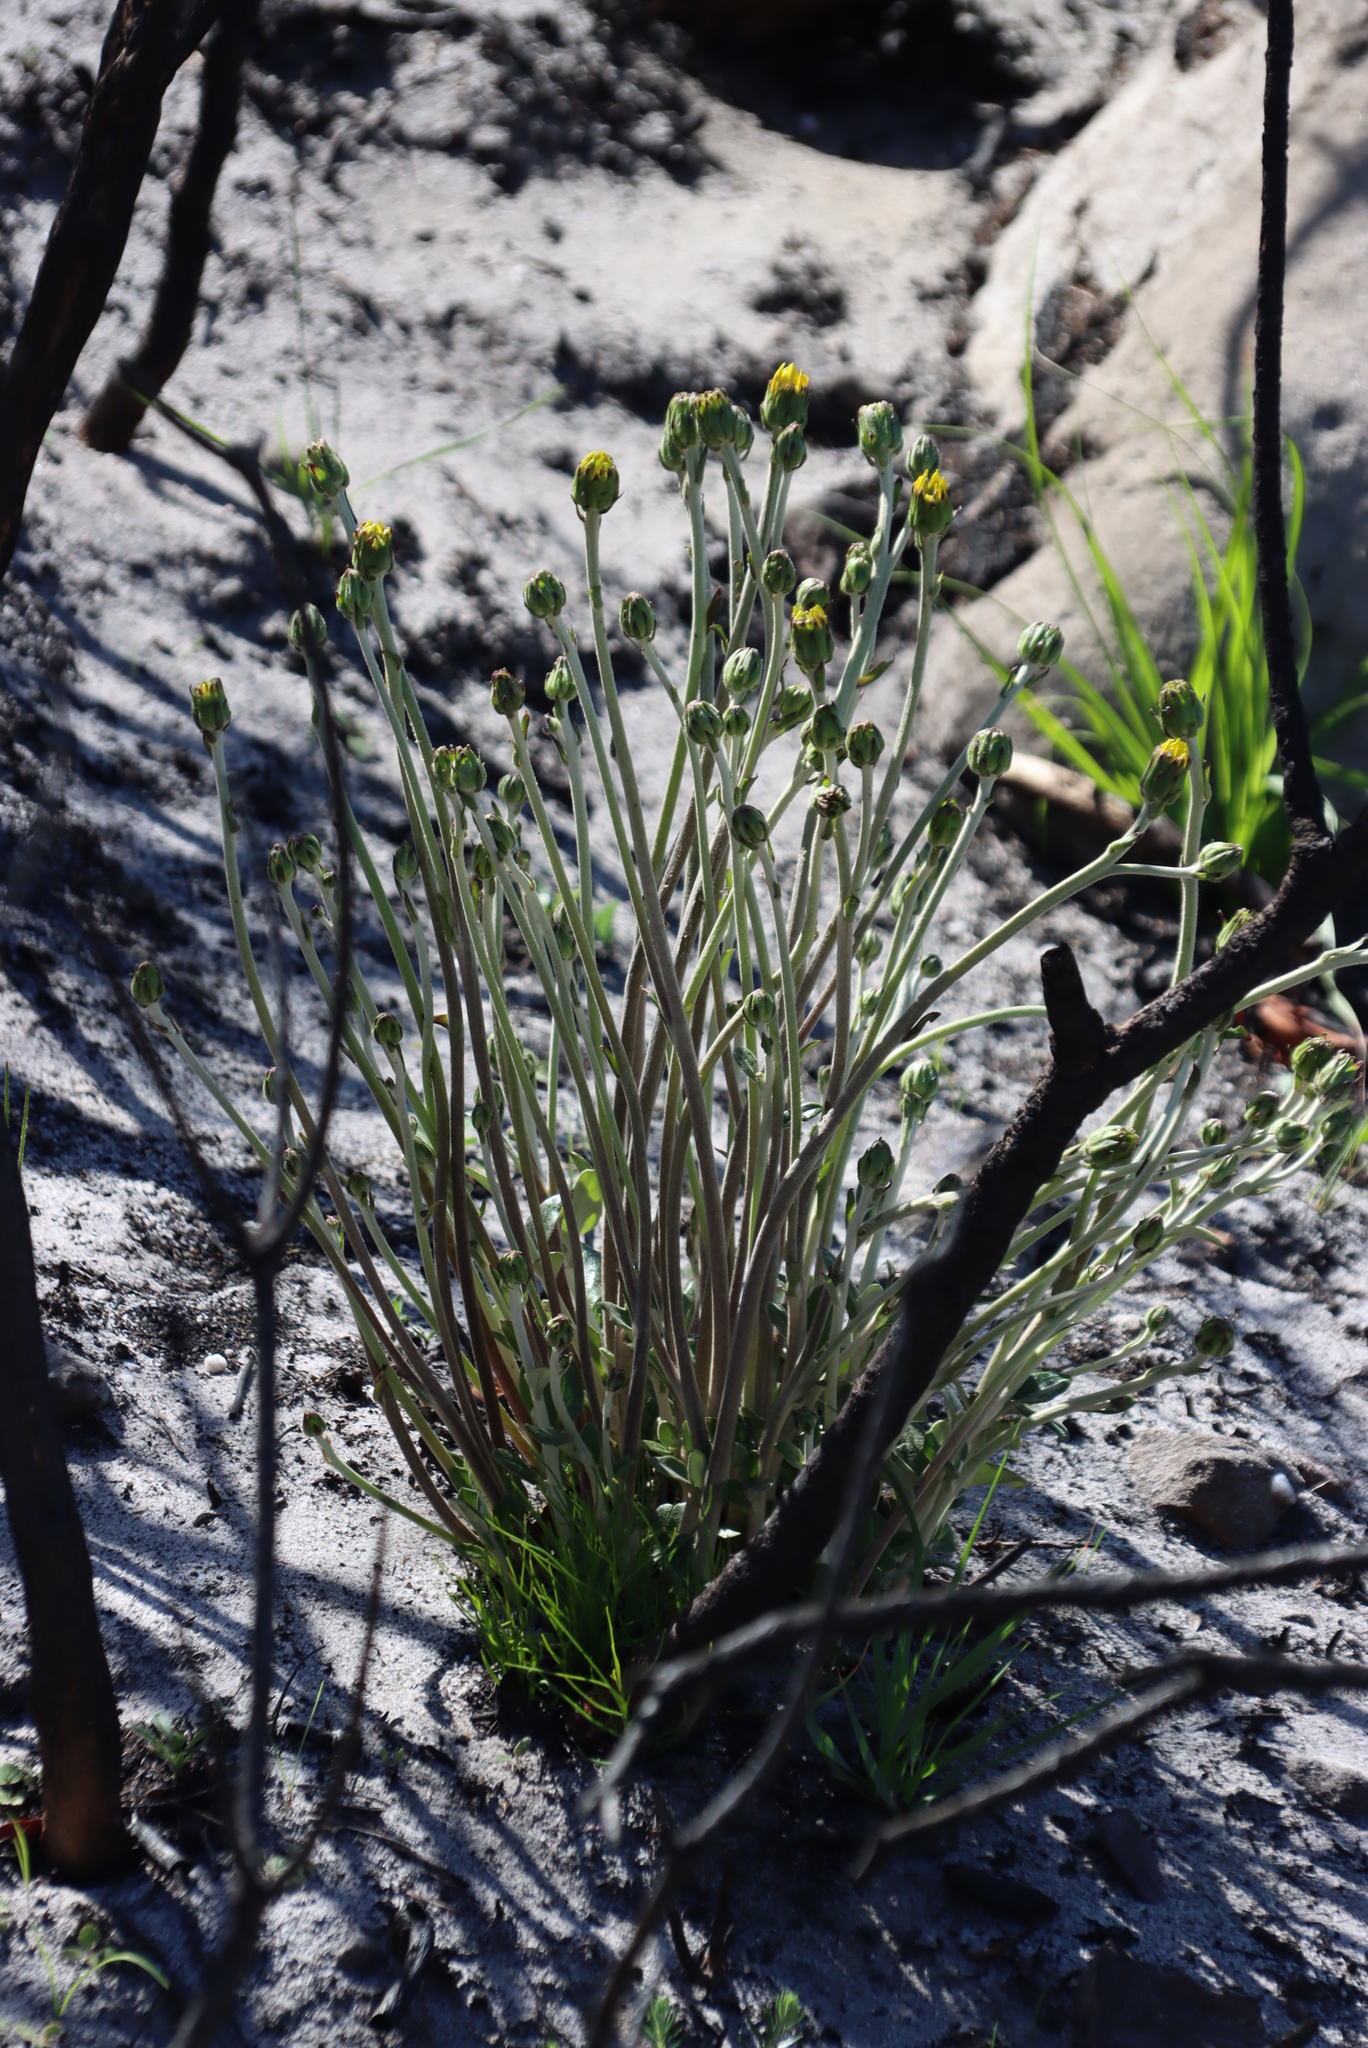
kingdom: Plantae
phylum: Tracheophyta
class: Magnoliopsida
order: Asterales
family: Asteraceae
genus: Capelio
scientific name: Capelio tabularis
